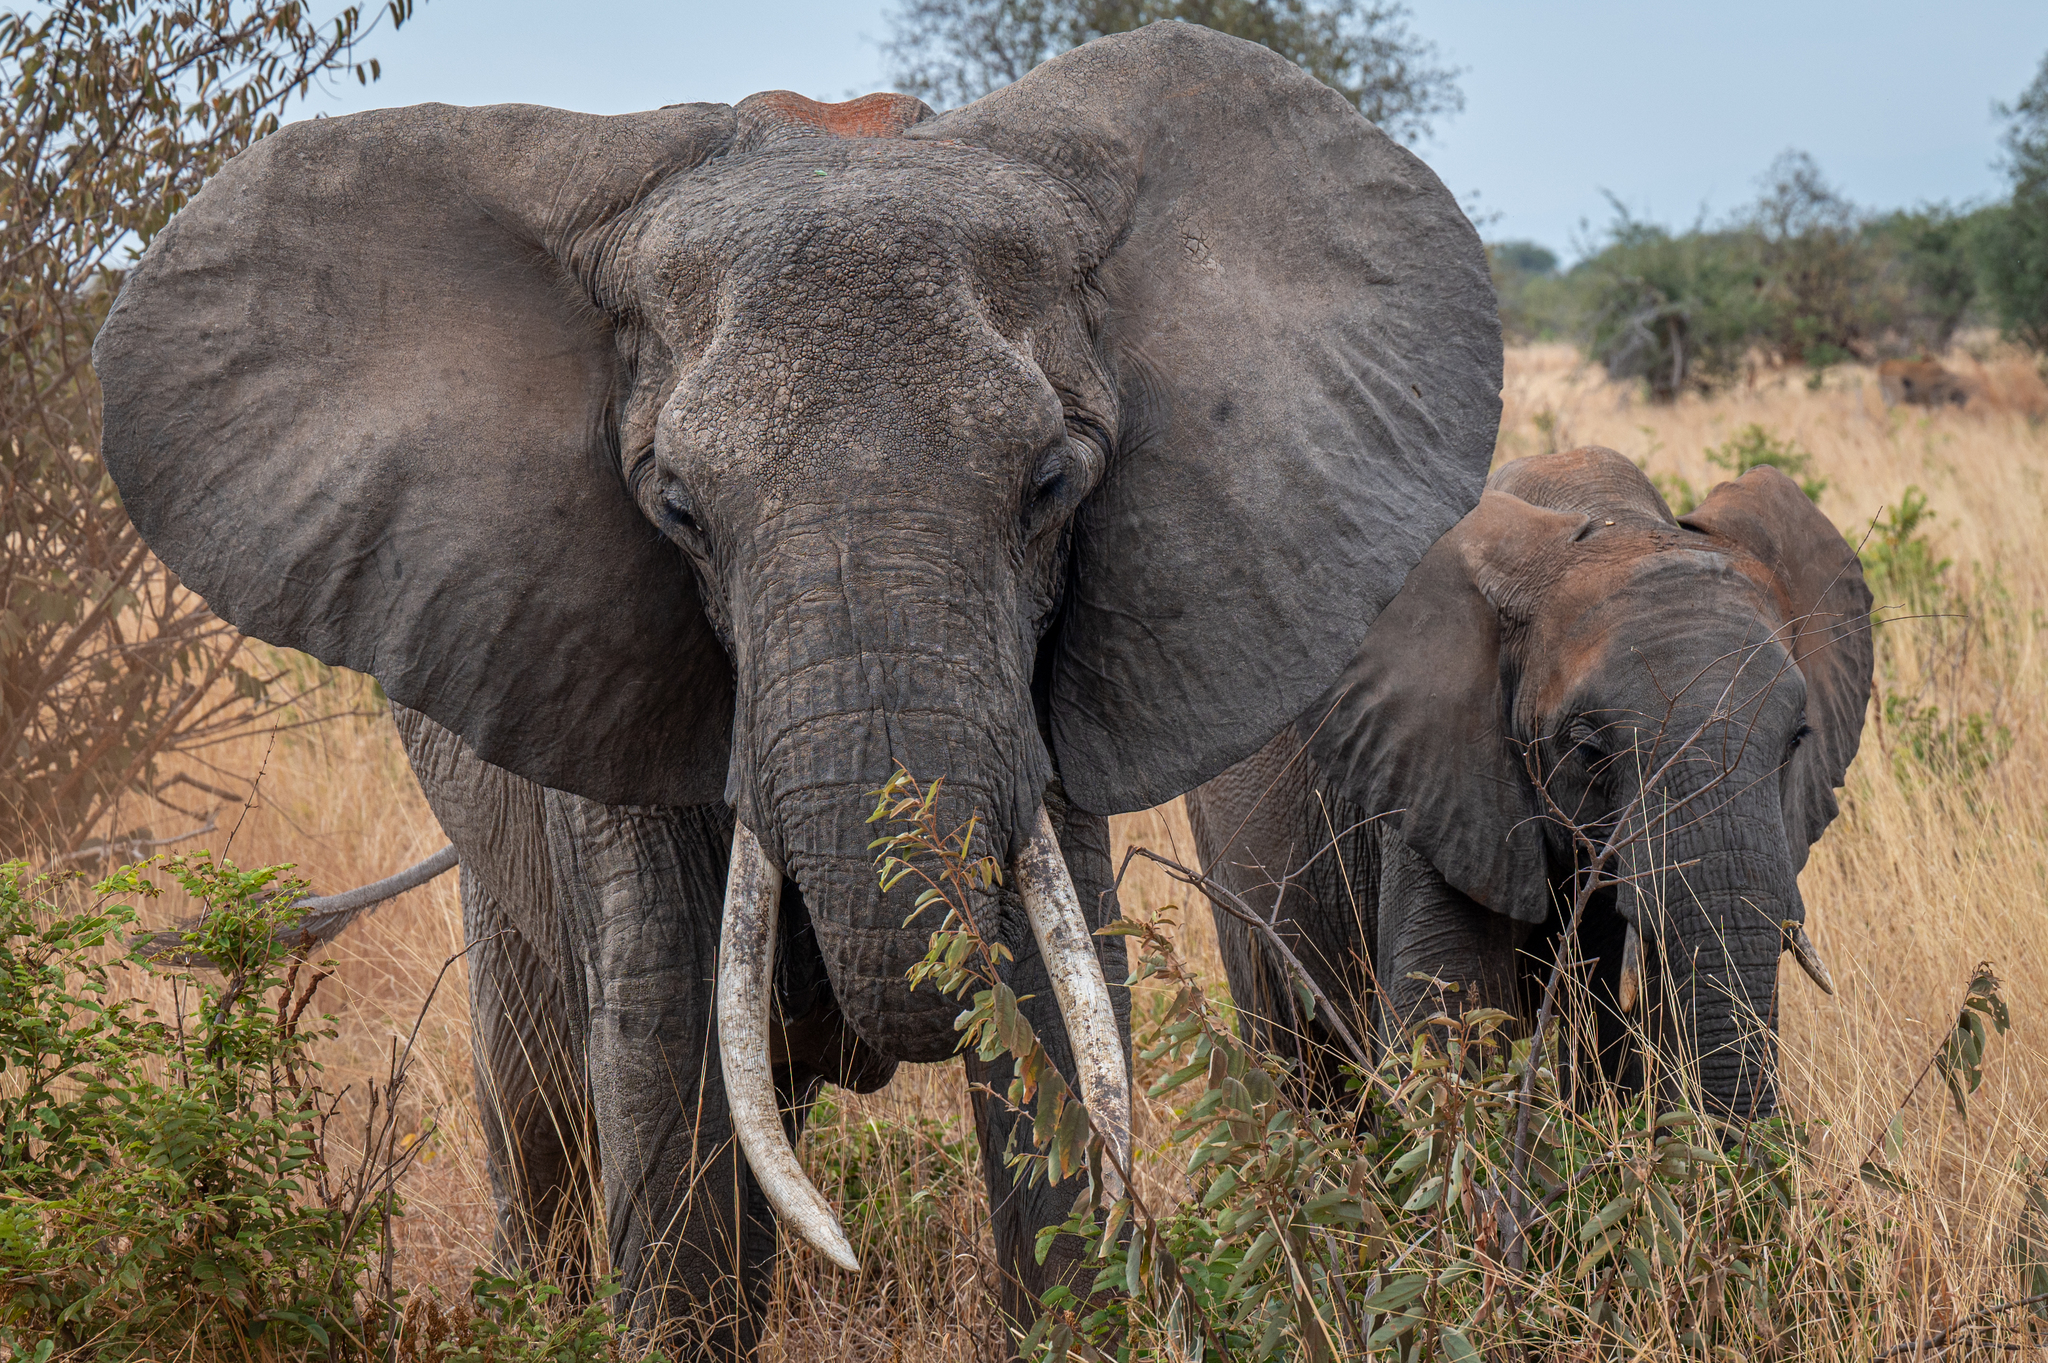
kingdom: Animalia
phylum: Chordata
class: Mammalia
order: Proboscidea
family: Elephantidae
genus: Loxodonta
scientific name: Loxodonta africana
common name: African elephant
